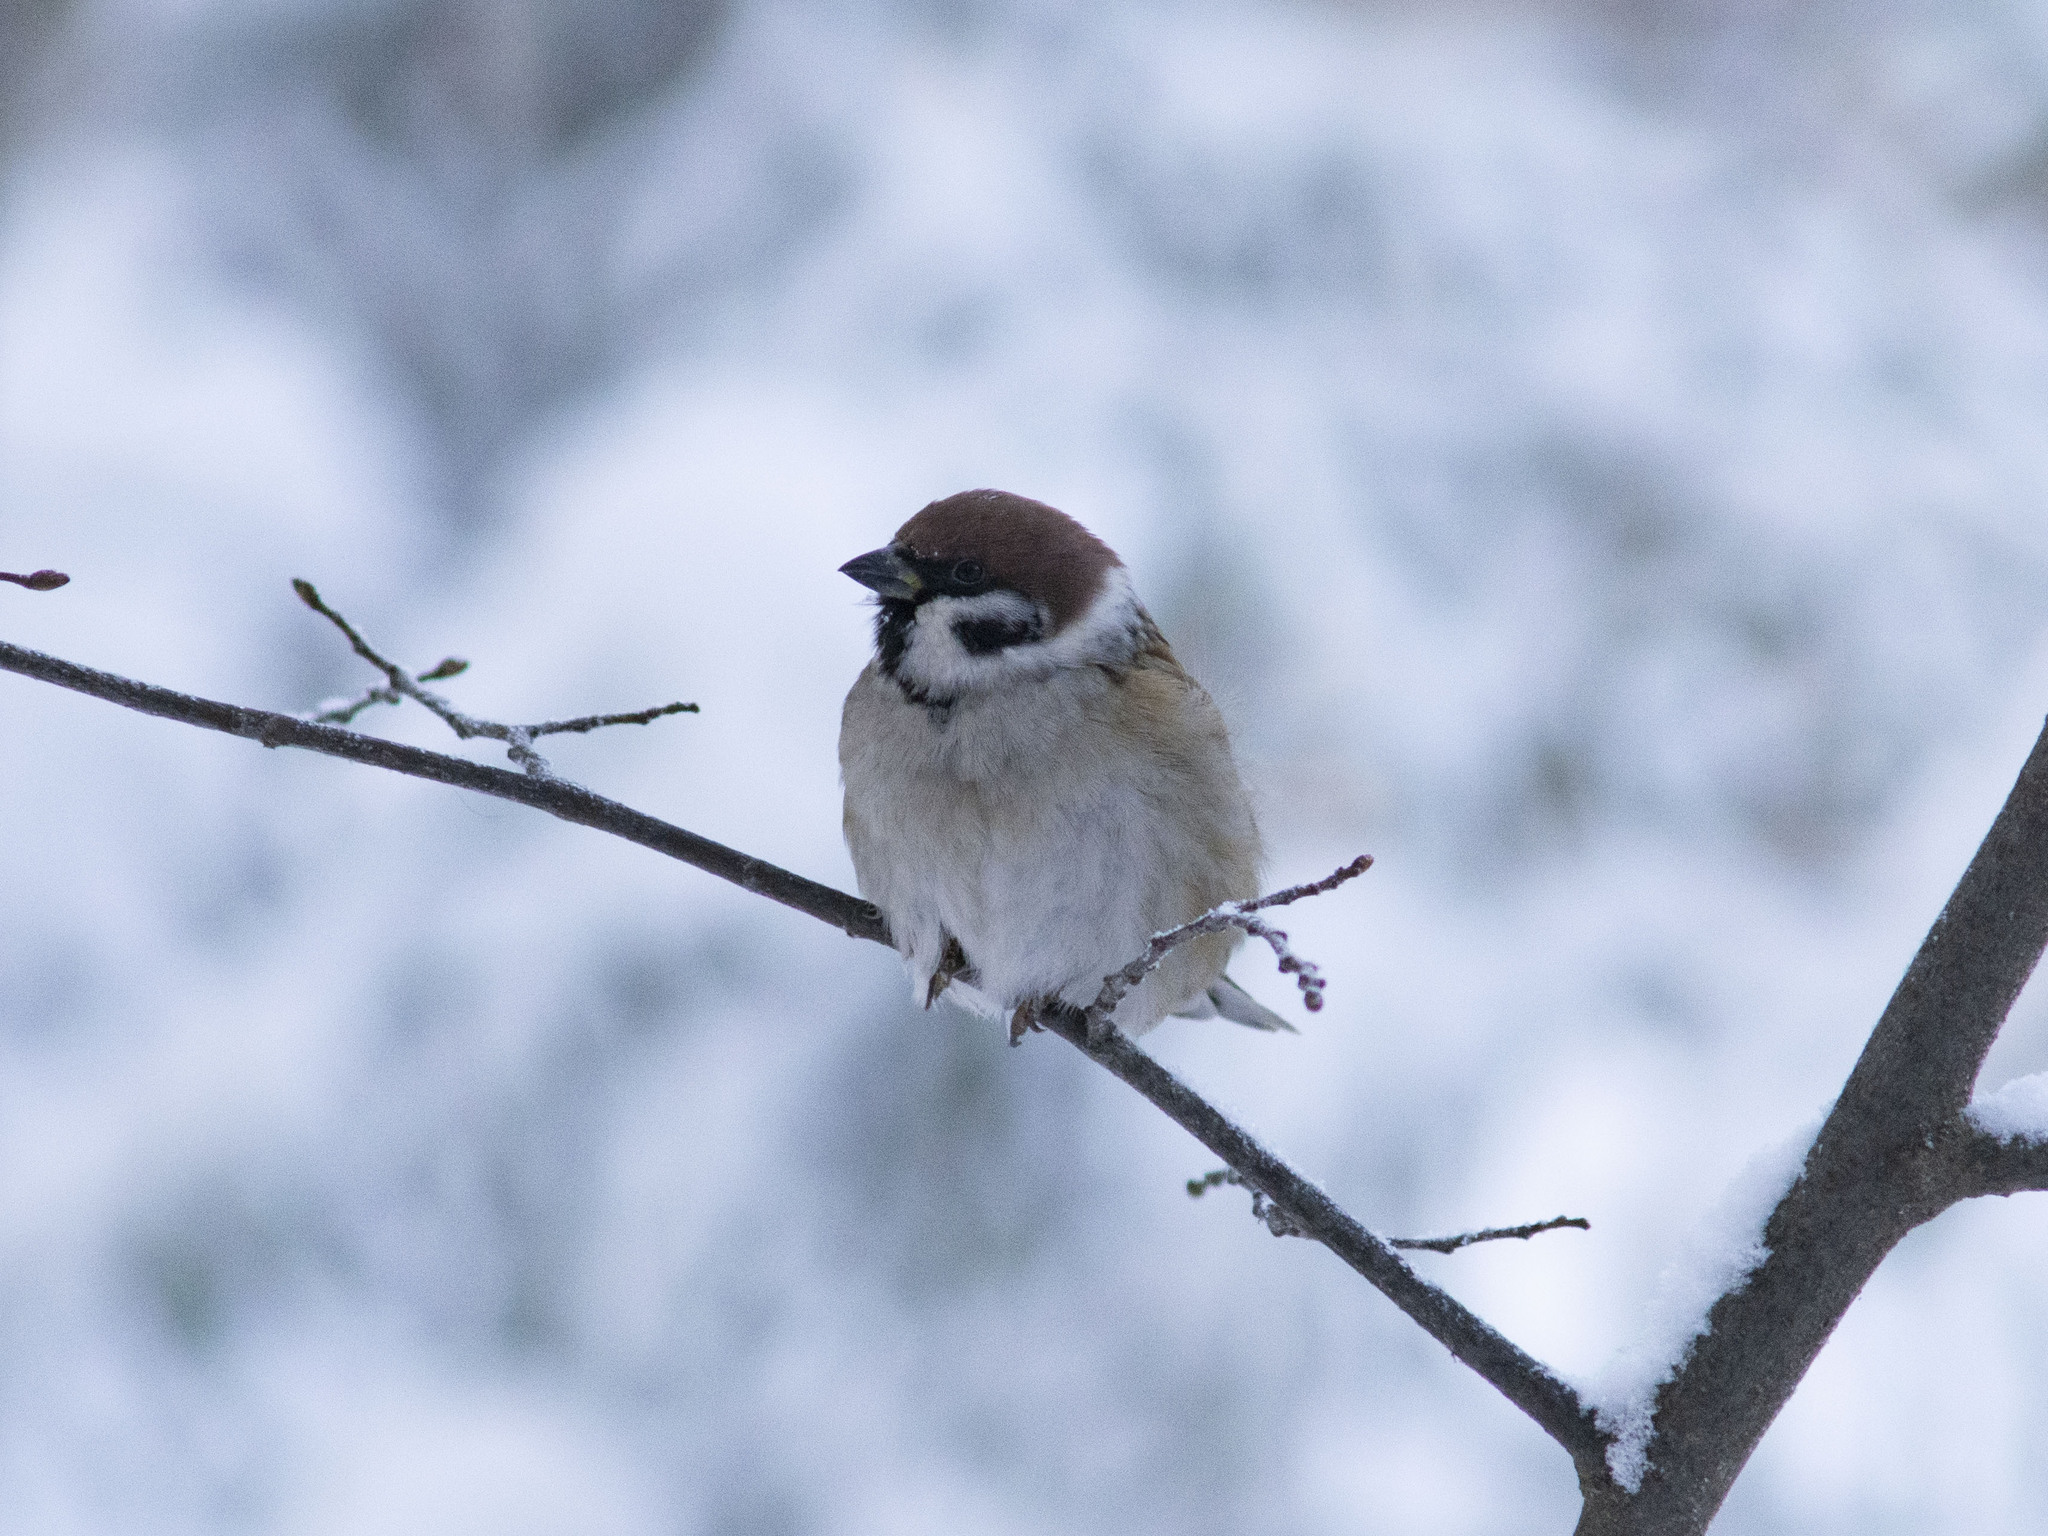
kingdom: Animalia
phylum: Chordata
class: Aves
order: Passeriformes
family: Passeridae
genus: Passer
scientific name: Passer montanus
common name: Eurasian tree sparrow
